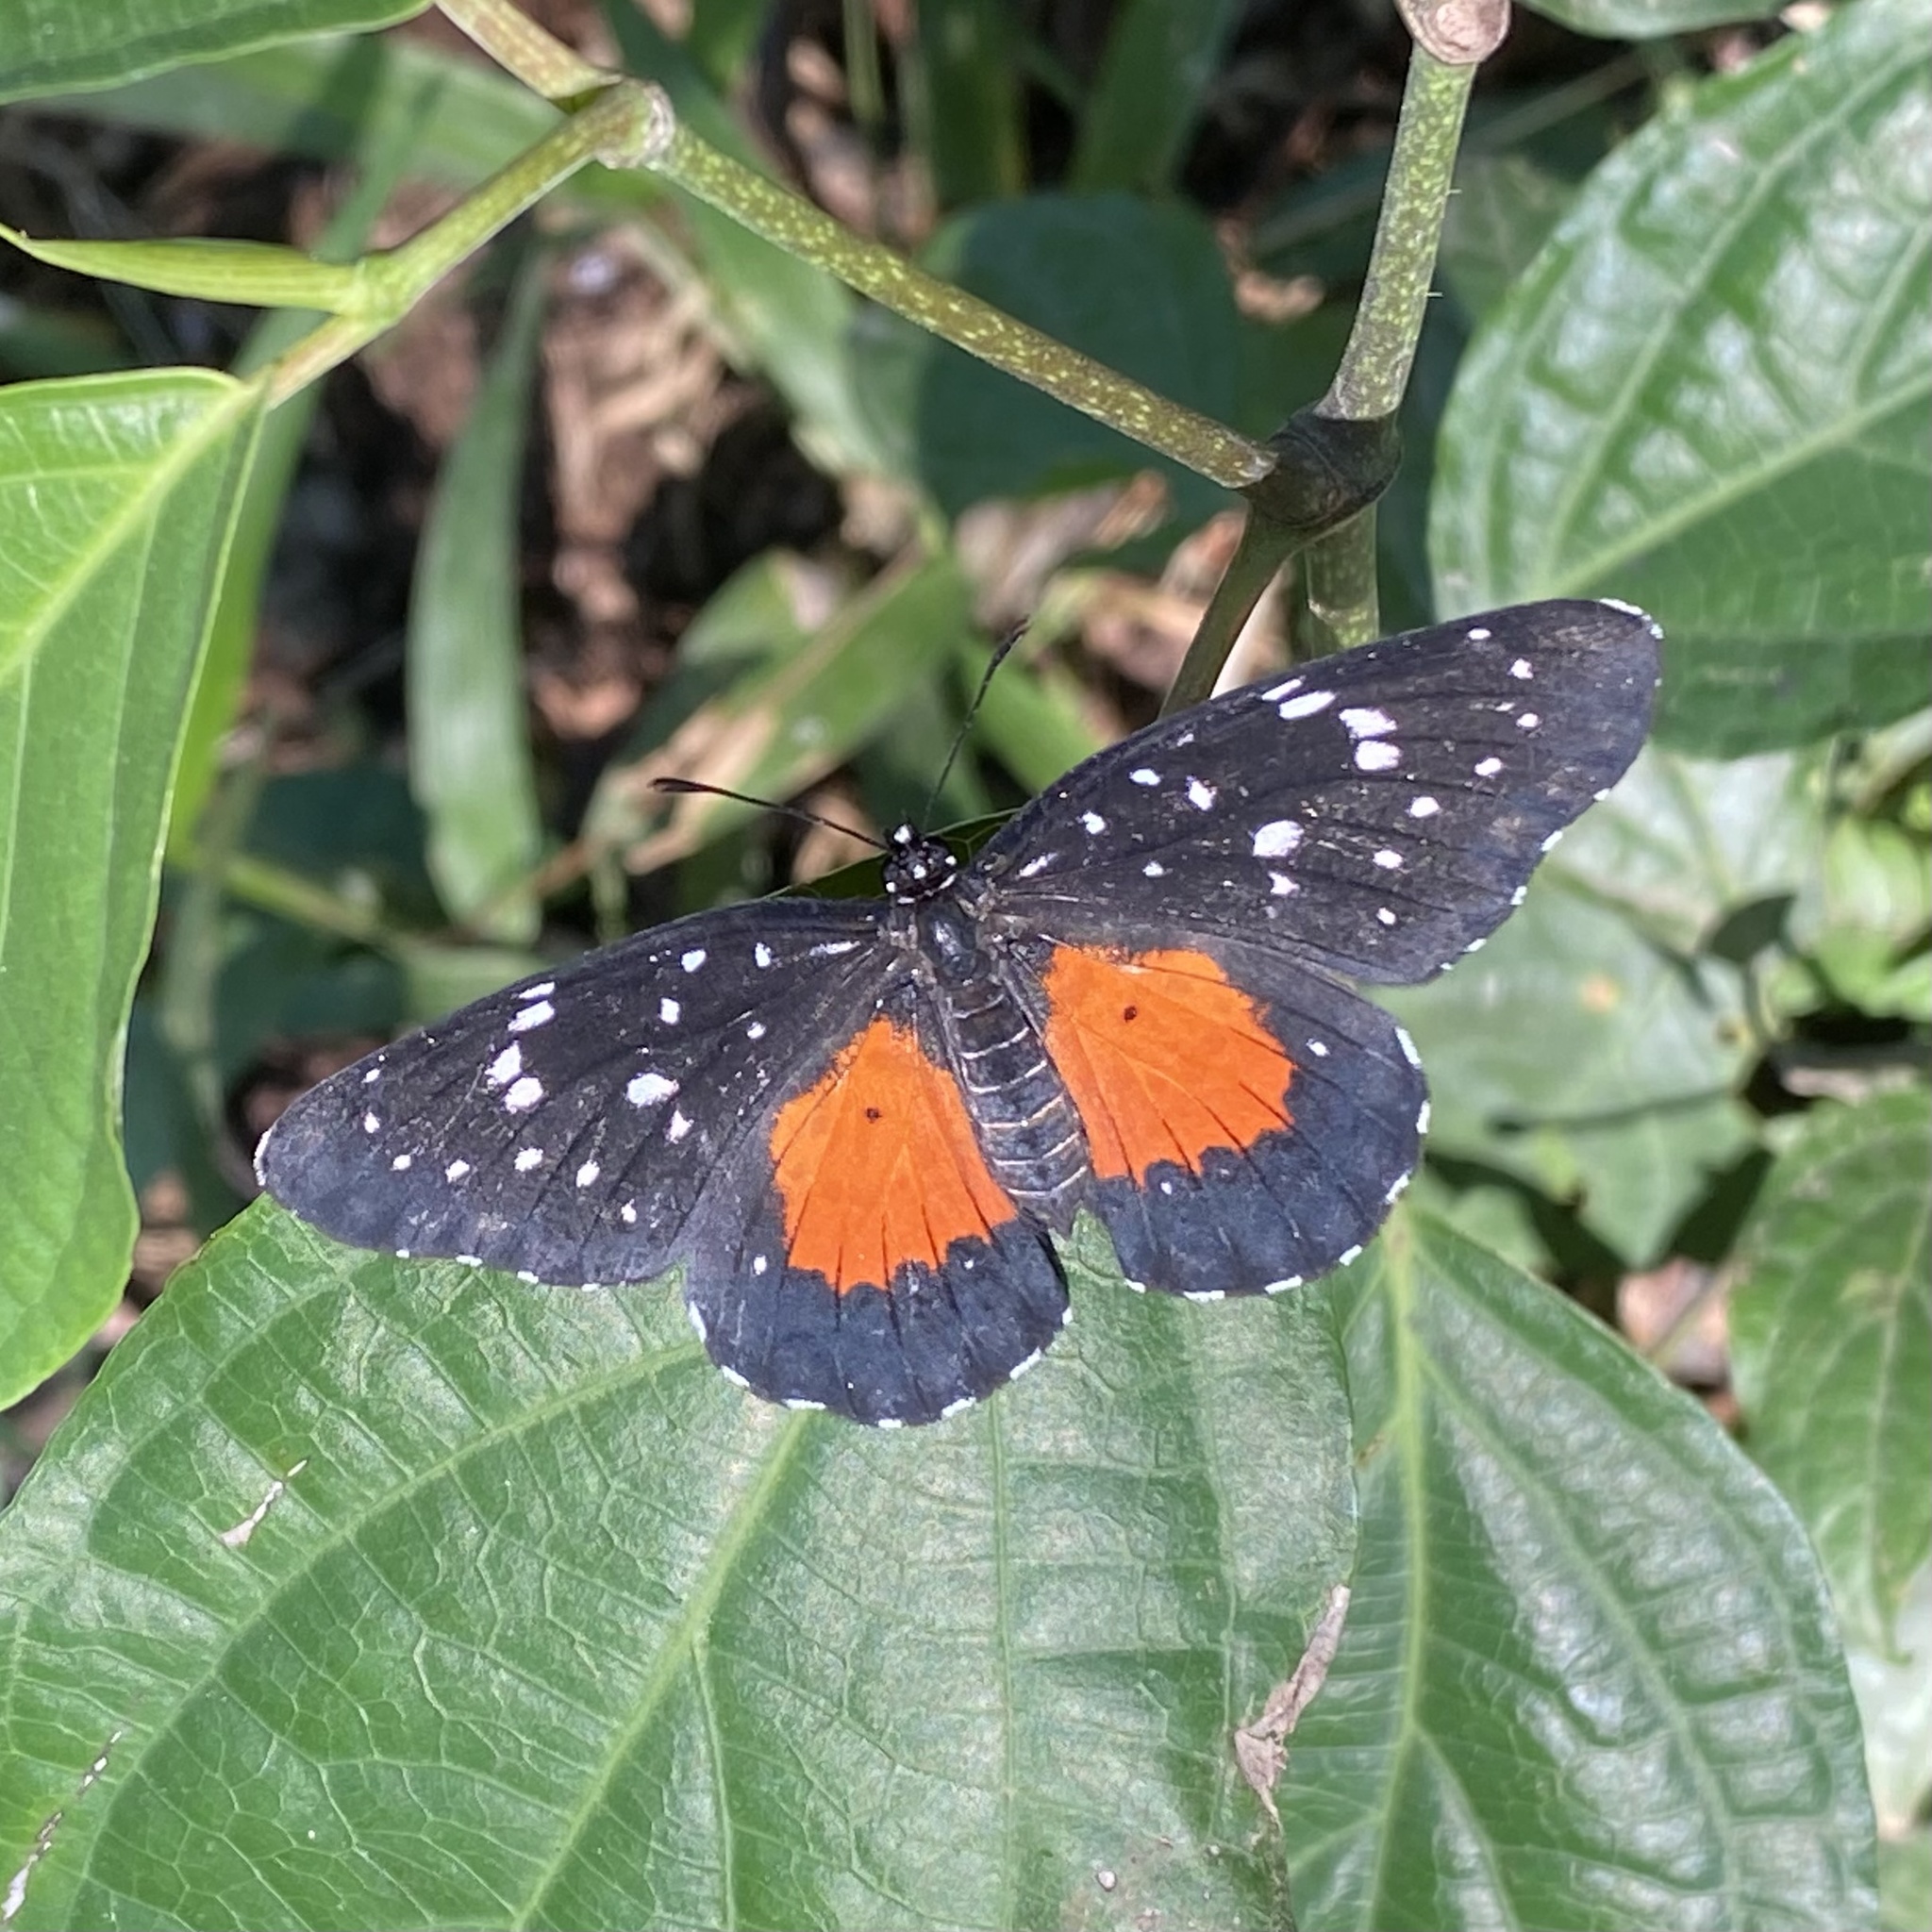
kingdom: Animalia
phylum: Arthropoda
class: Insecta
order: Lepidoptera
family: Nymphalidae
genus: Chlosyne
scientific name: Chlosyne janais
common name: Crimson patch
